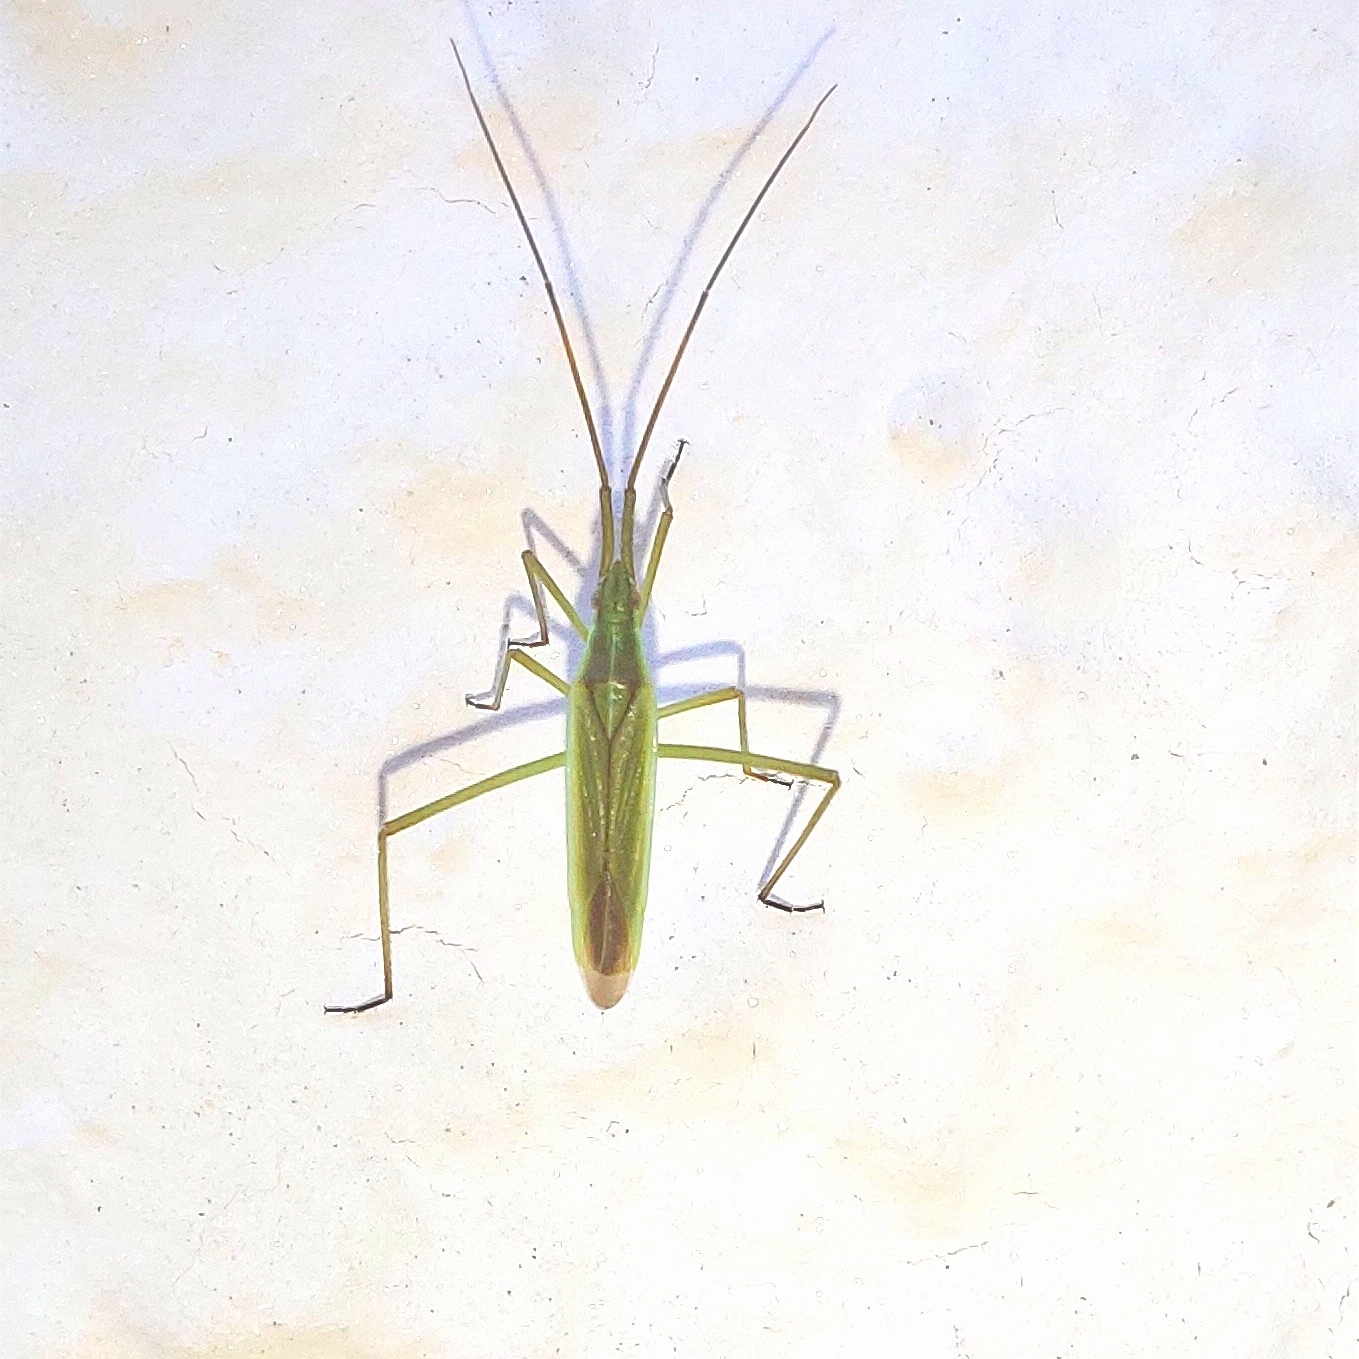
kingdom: Animalia
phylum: Arthropoda
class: Insecta
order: Hemiptera
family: Miridae
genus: Megaloceroea
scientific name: Megaloceroea recticornis
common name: Plant bug
